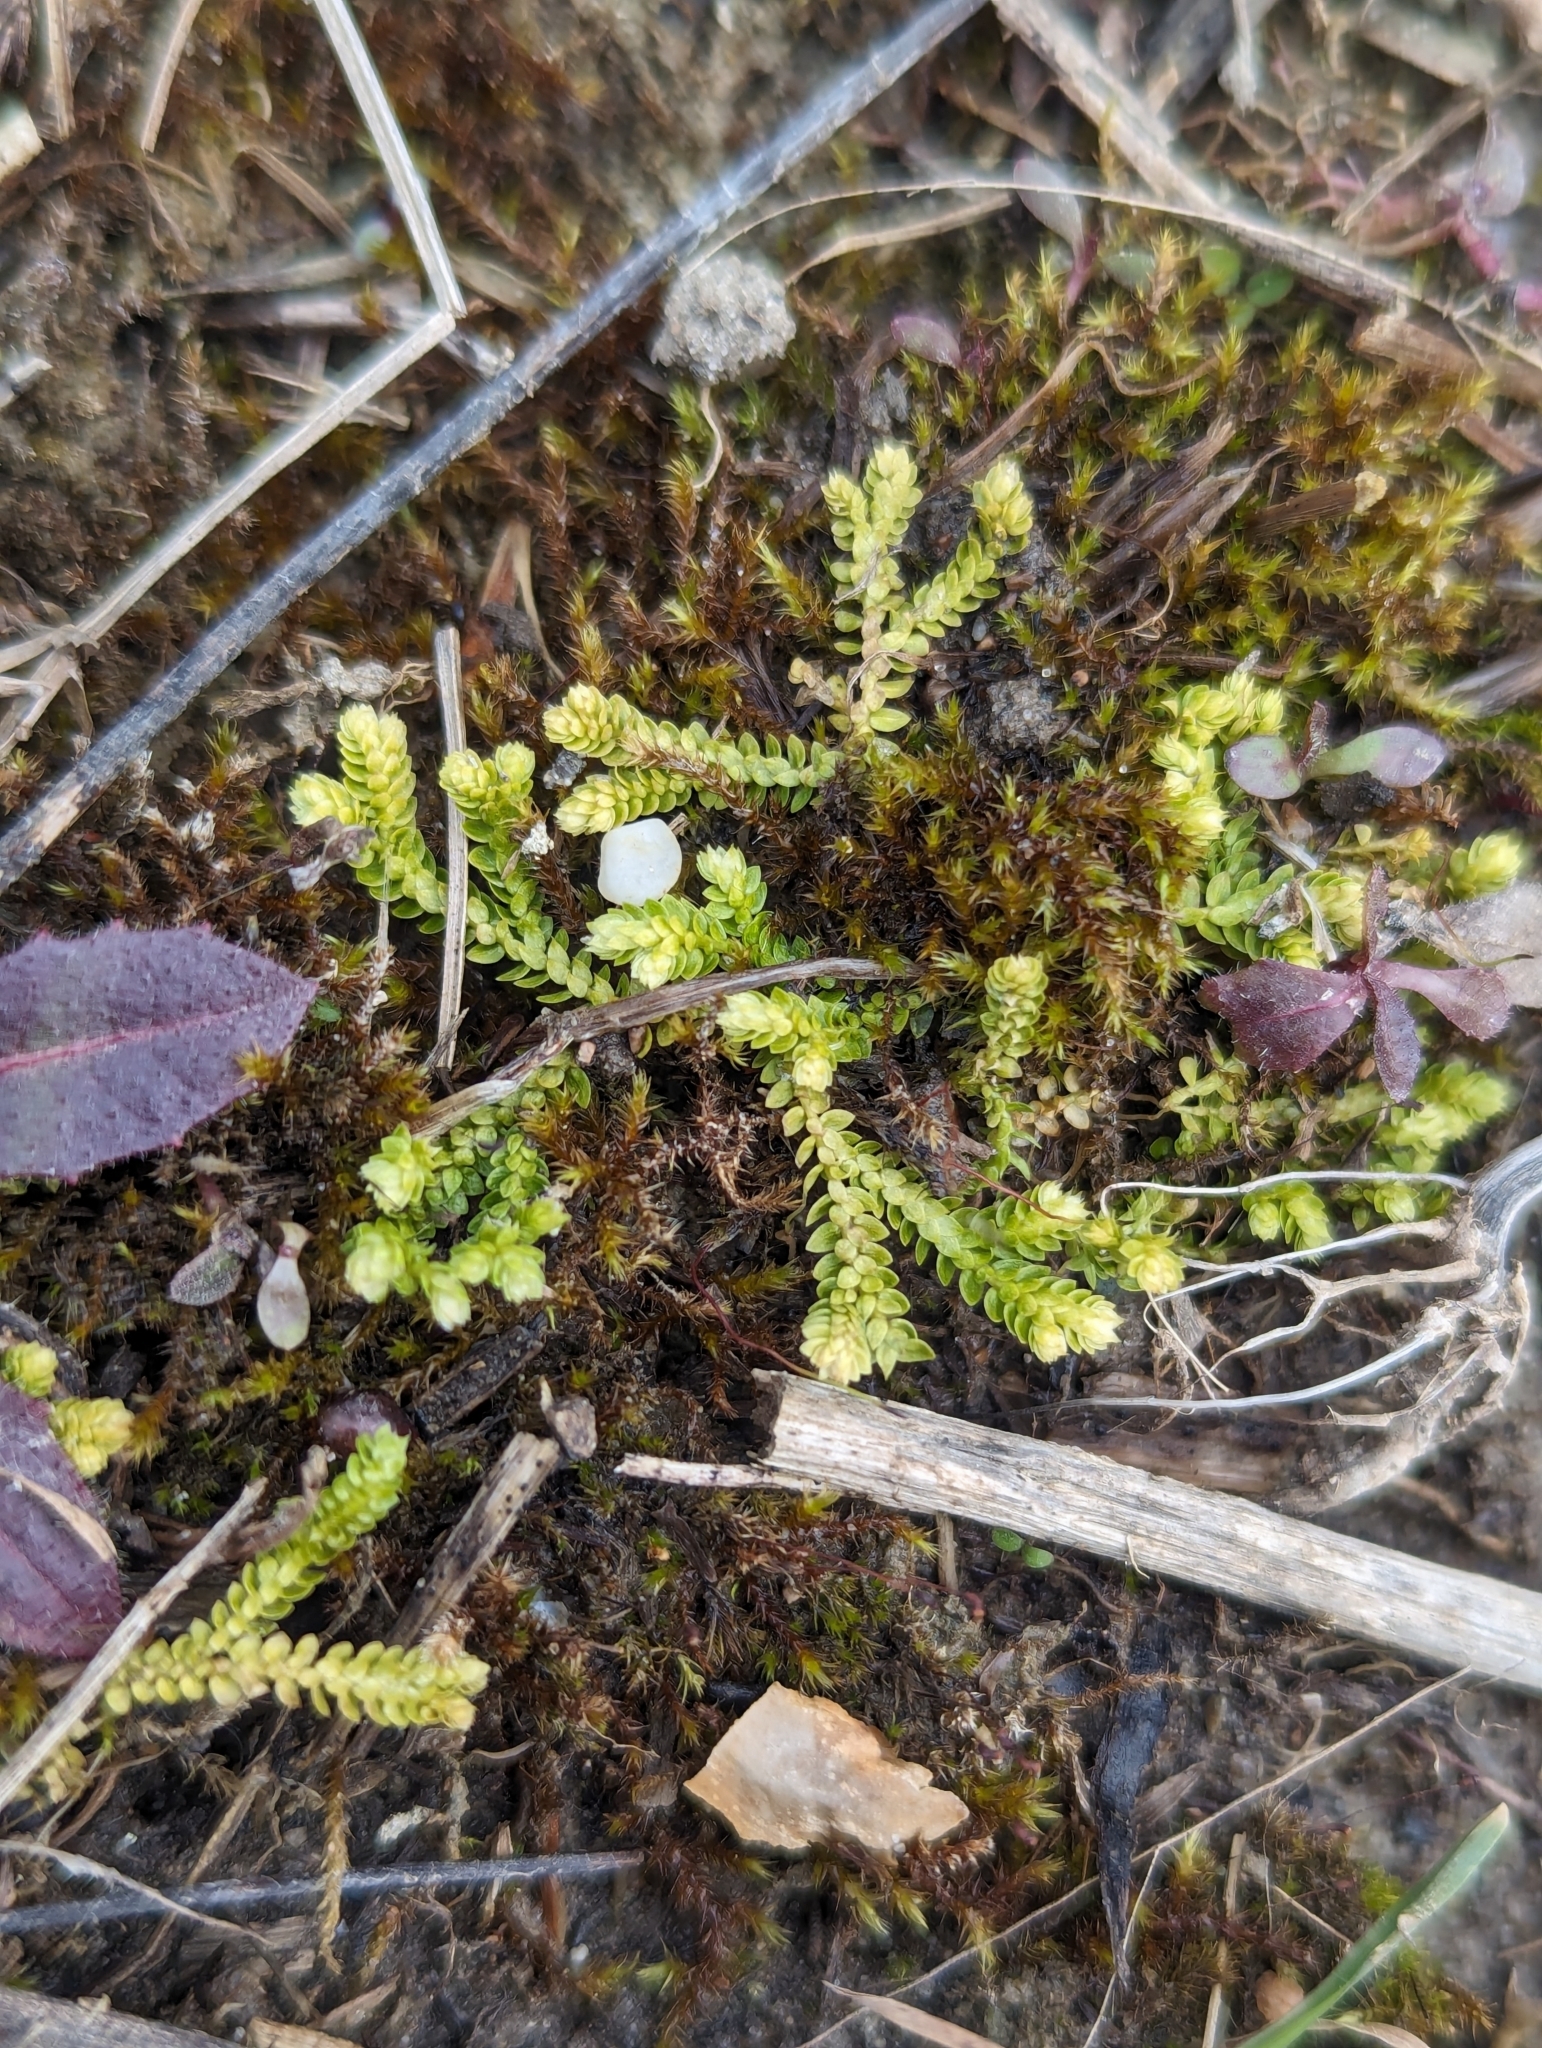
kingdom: Plantae
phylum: Tracheophyta
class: Lycopodiopsida
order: Selaginellales
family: Selaginellaceae
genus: Selaginella
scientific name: Selaginella eclipes
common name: Buck's meadow spikemoss
